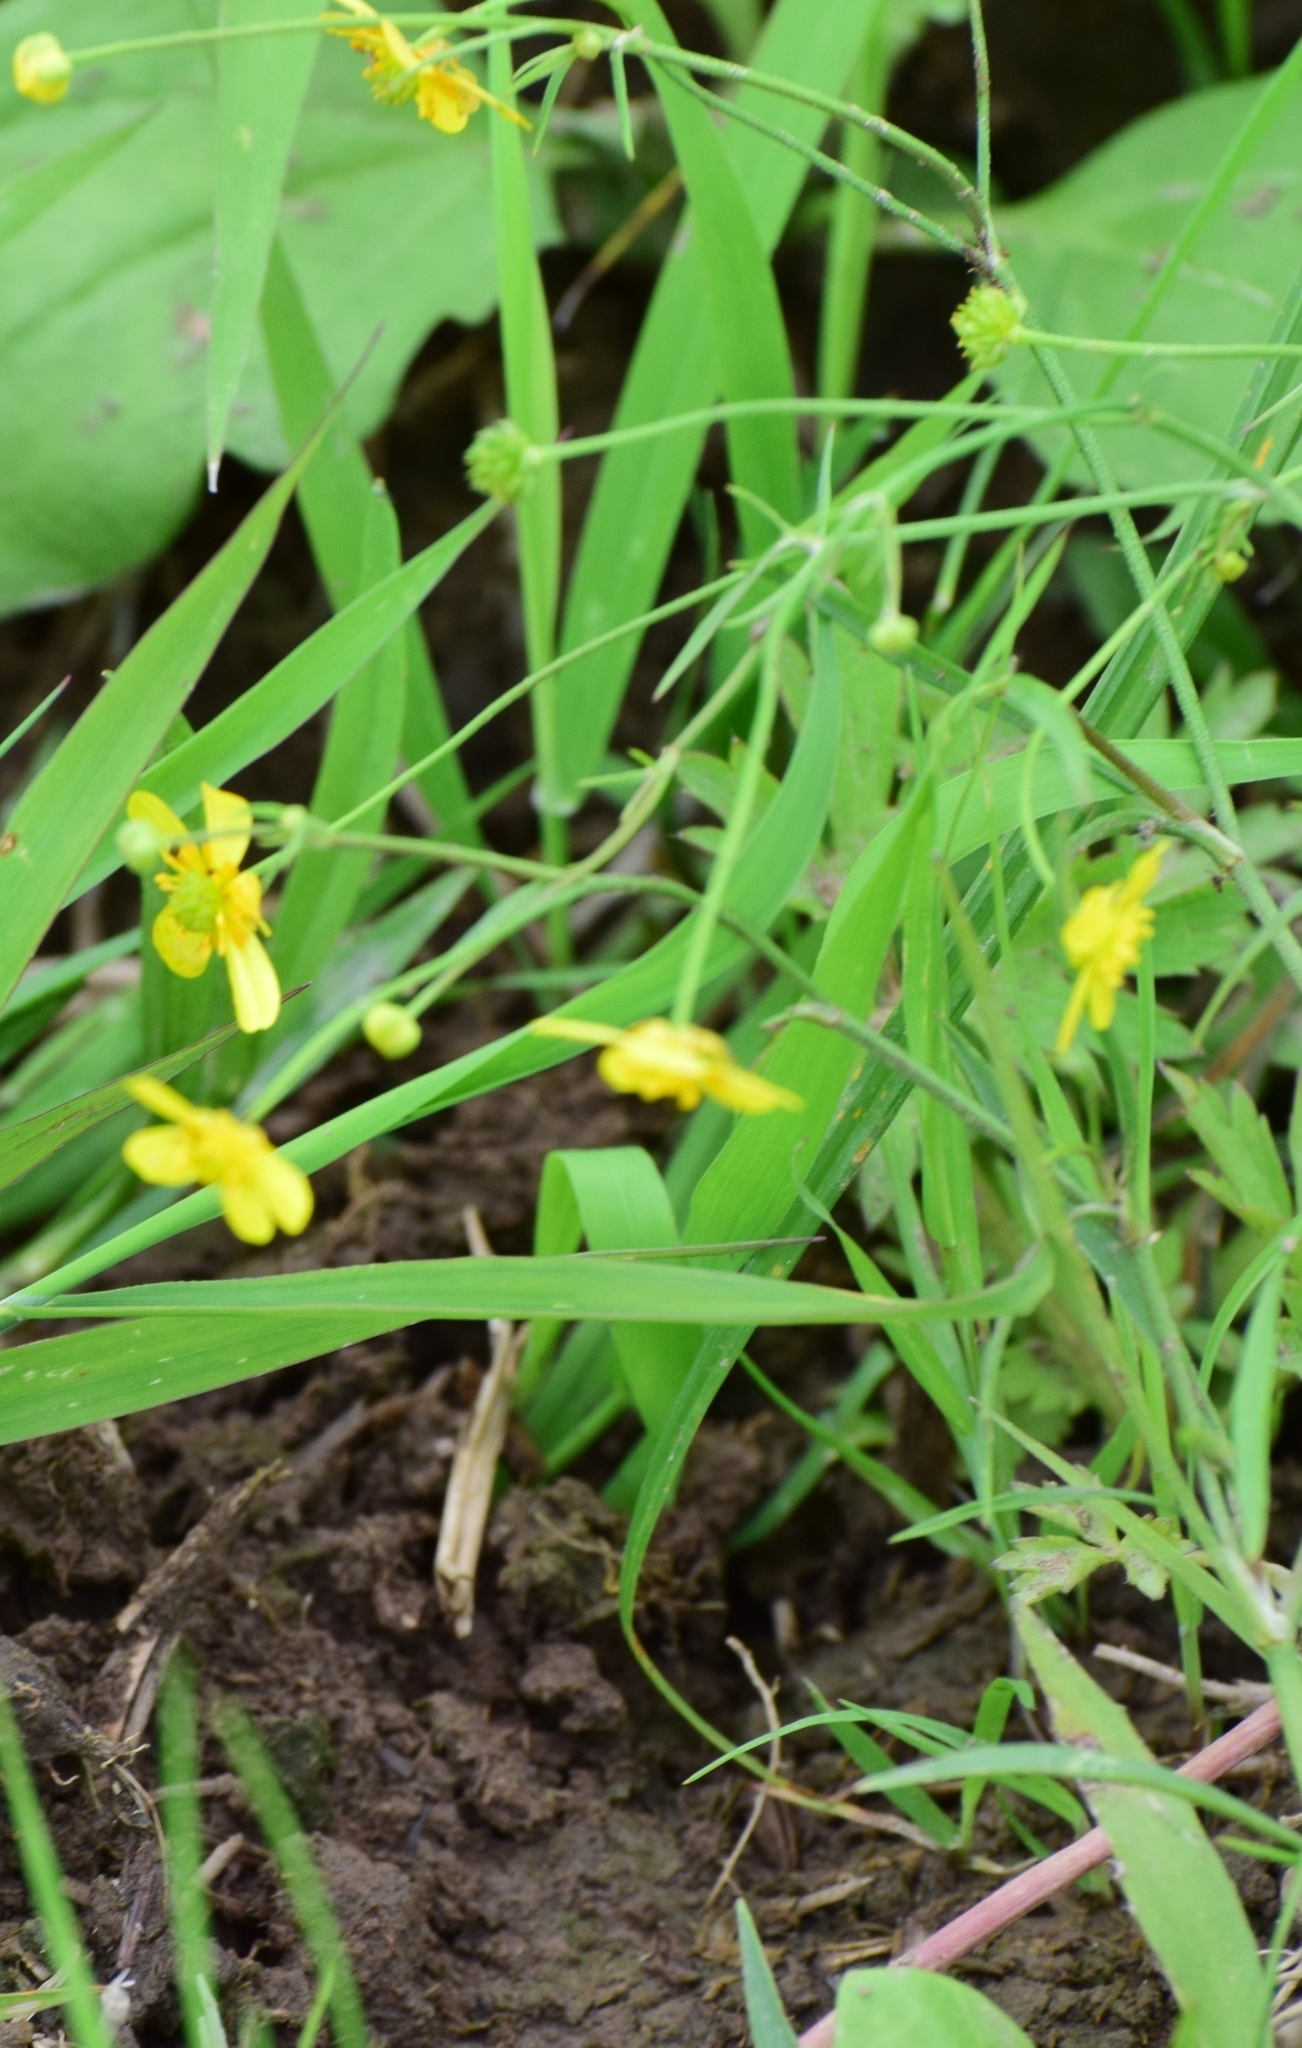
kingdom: Plantae
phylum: Tracheophyta
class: Magnoliopsida
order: Ranunculales
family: Ranunculaceae
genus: Ranunculus
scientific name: Ranunculus flammula
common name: Lesser spearwort
